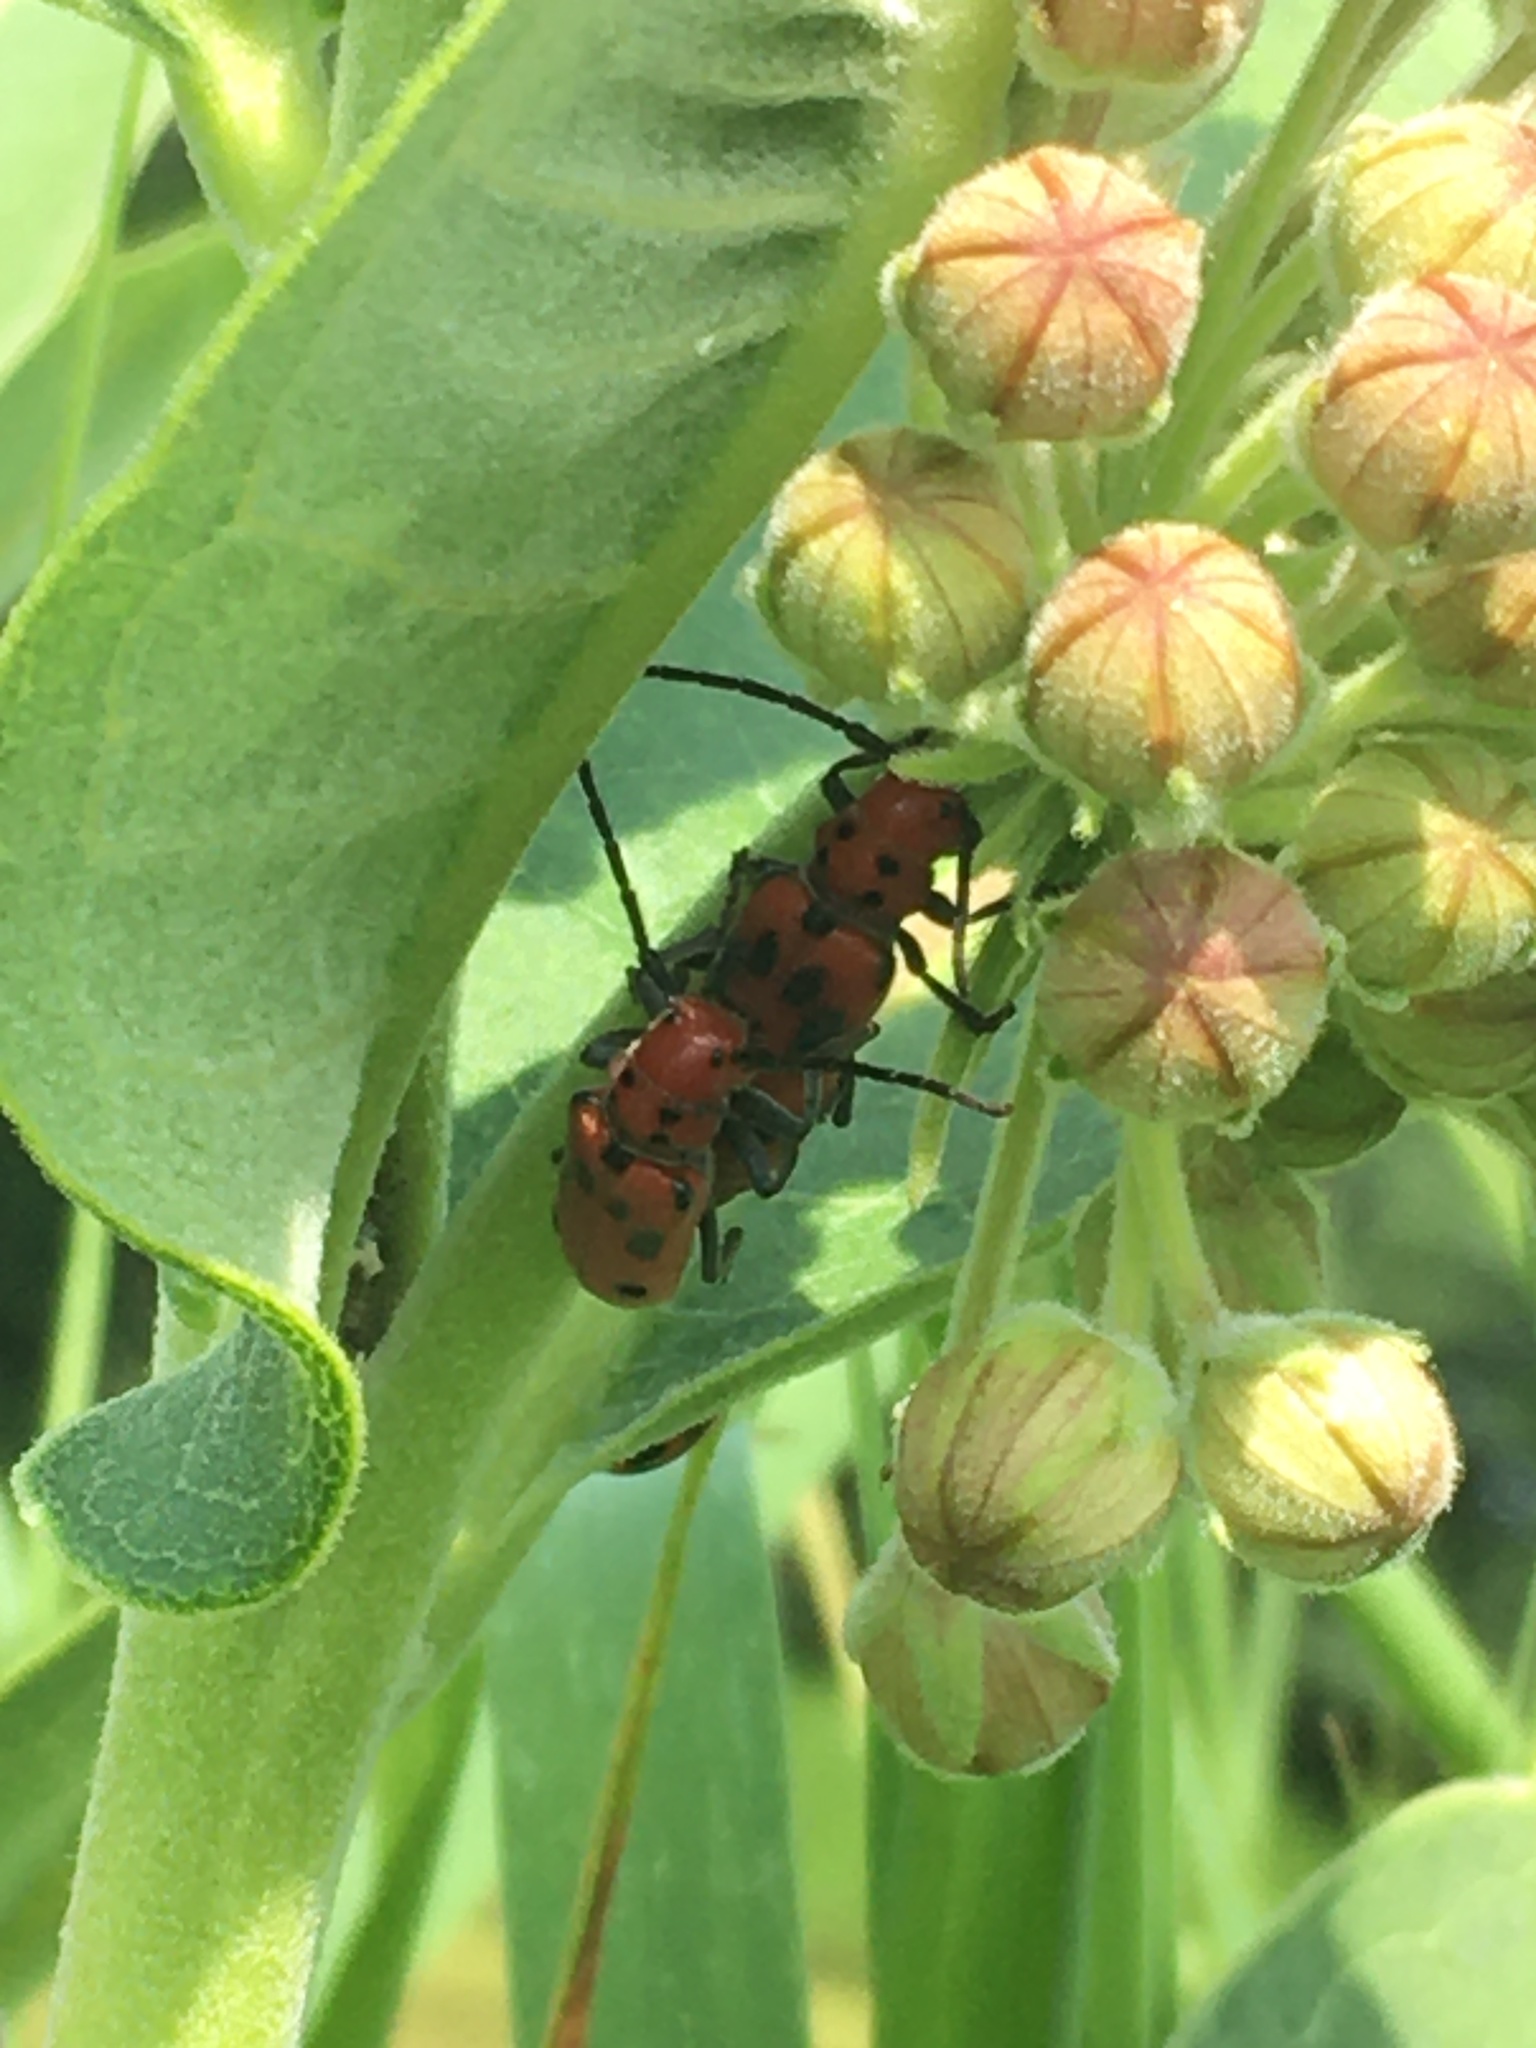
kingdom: Animalia
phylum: Arthropoda
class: Insecta
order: Coleoptera
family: Cerambycidae
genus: Tetraopes
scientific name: Tetraopes tetrophthalmus
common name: Red milkweed beetle
